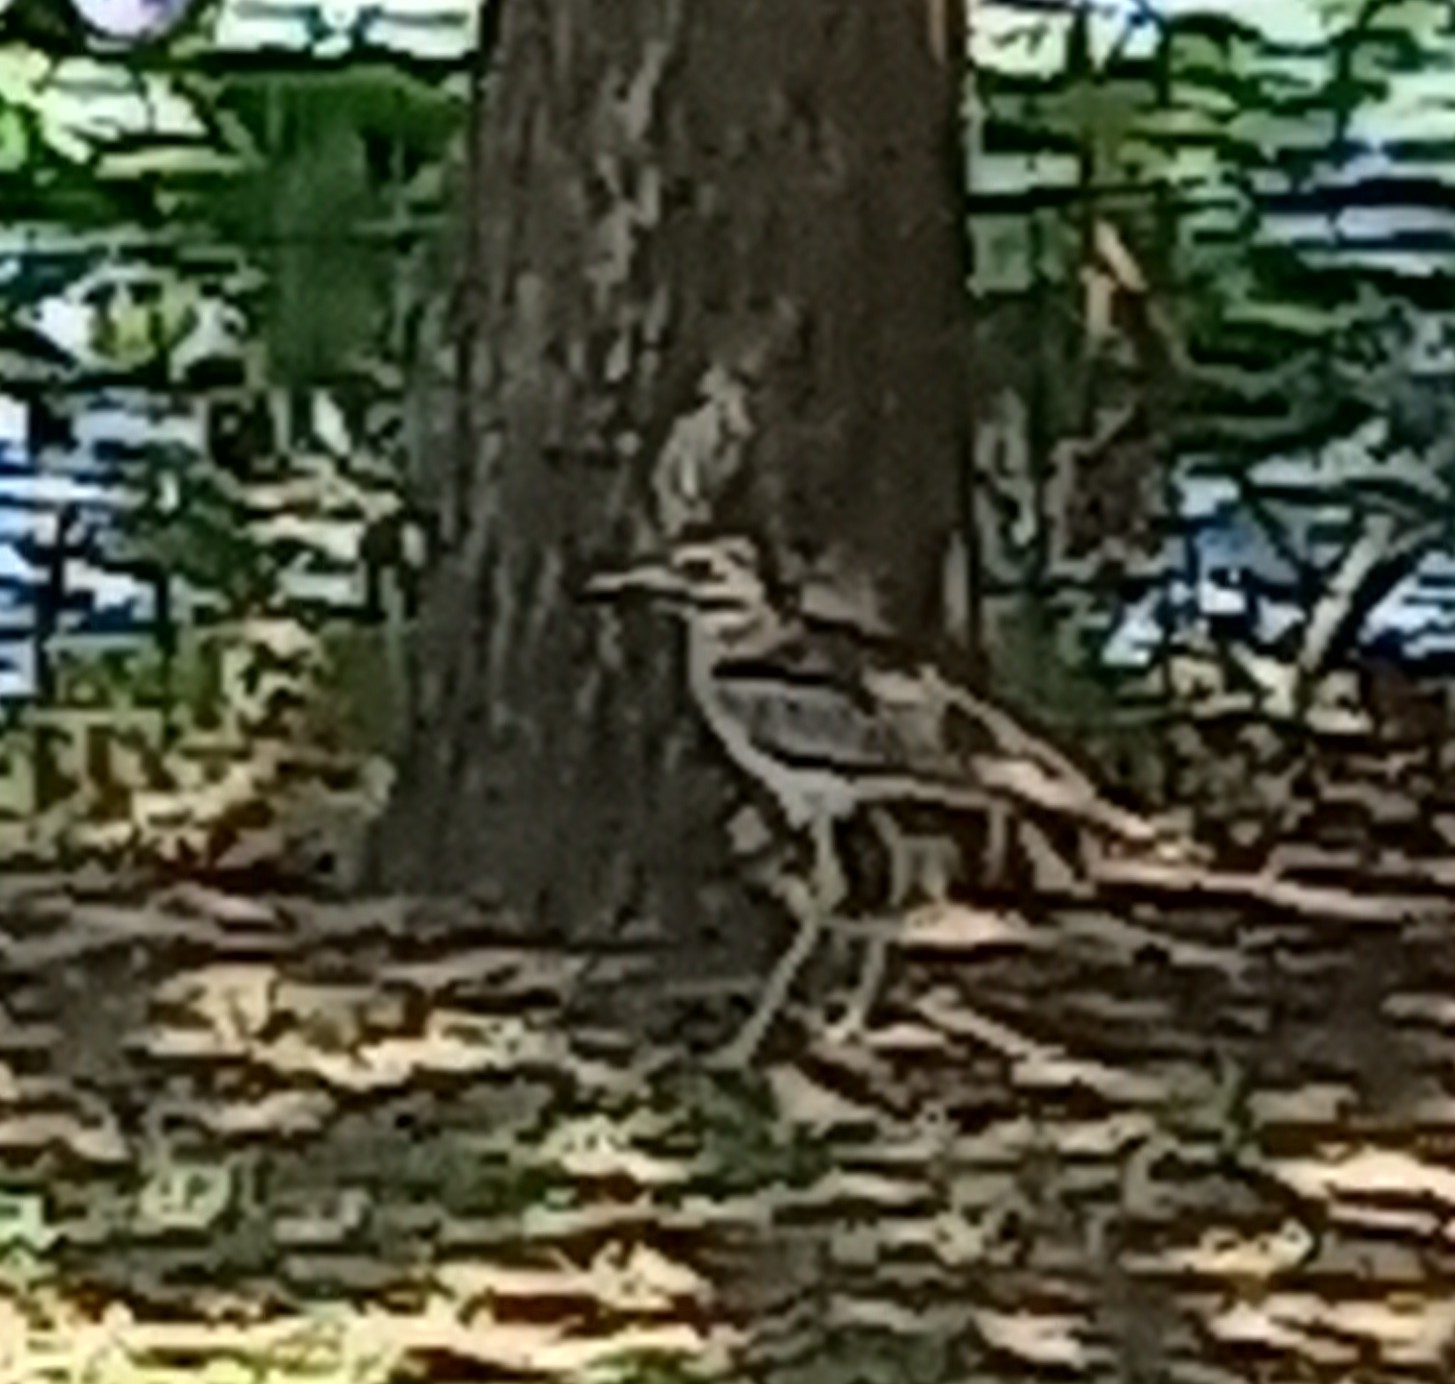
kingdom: Animalia
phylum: Chordata
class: Aves
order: Charadriiformes
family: Burhinidae
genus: Burhinus
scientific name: Burhinus vermiculatus
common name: Water thick-knee
